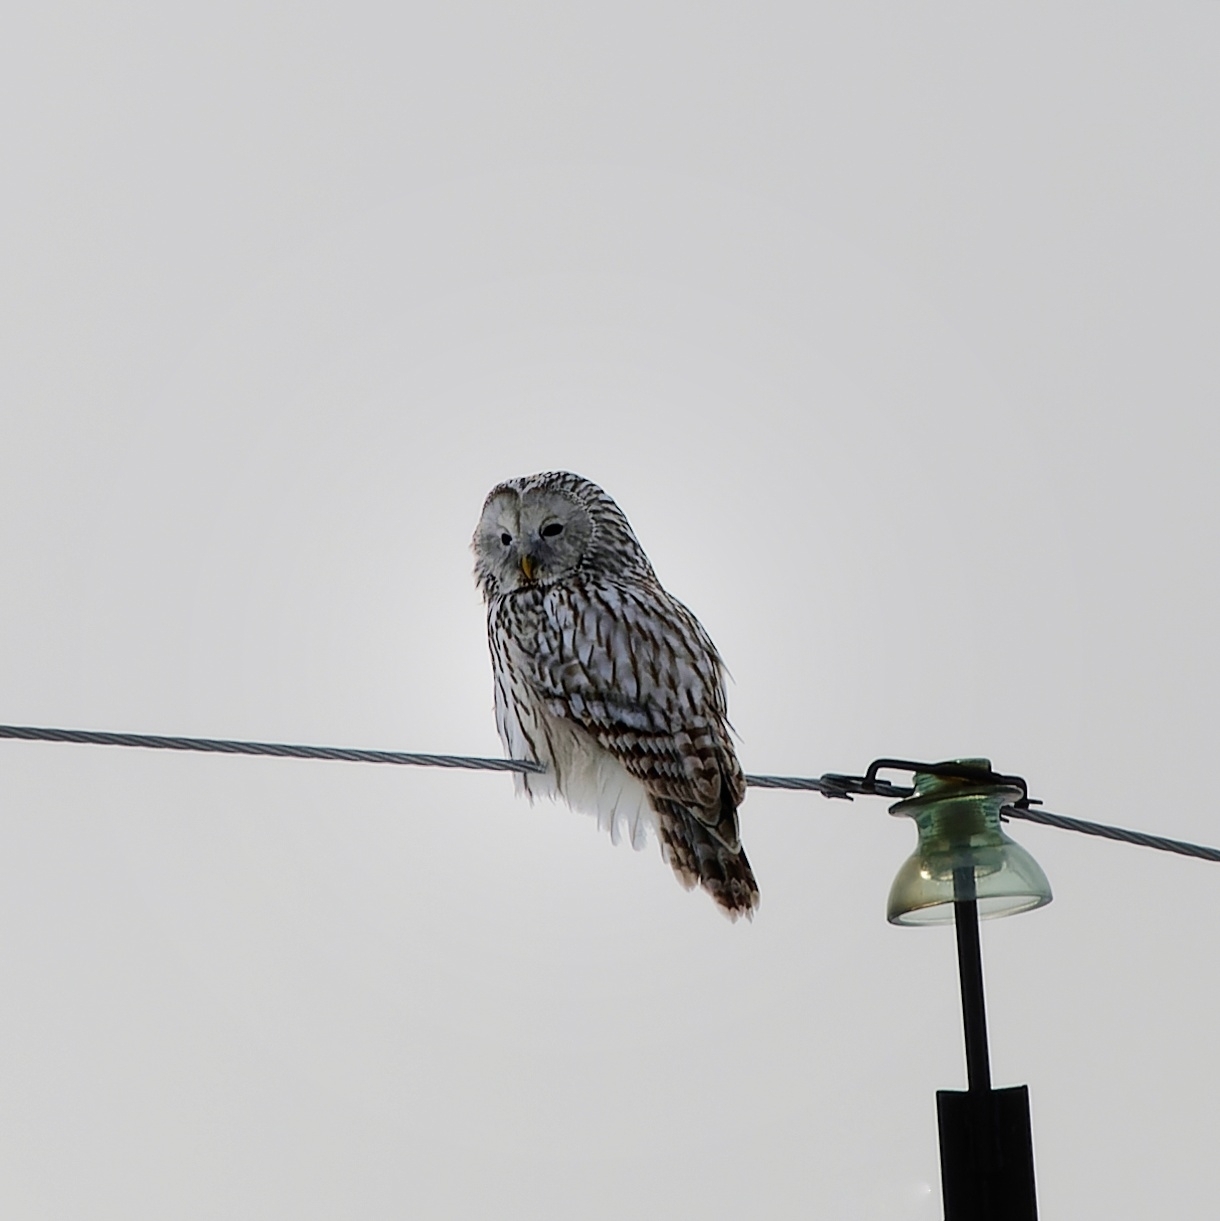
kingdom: Animalia
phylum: Chordata
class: Aves
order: Strigiformes
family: Strigidae
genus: Strix
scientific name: Strix uralensis
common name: Ural owl
